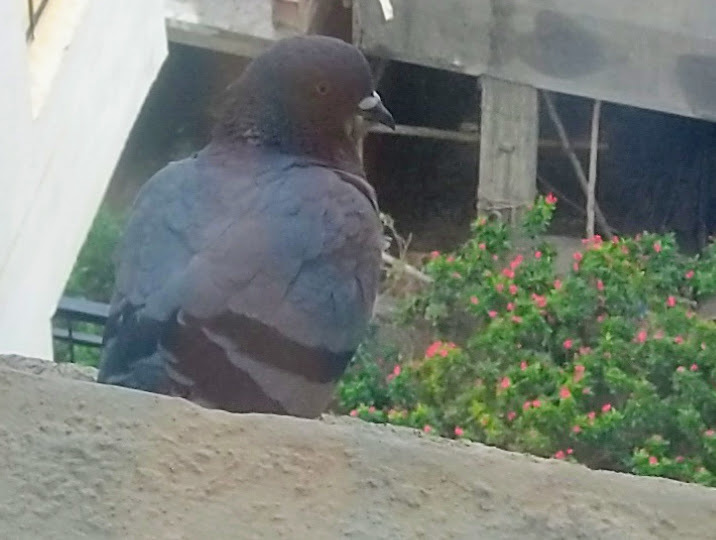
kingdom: Animalia
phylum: Chordata
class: Aves
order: Columbiformes
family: Columbidae
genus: Columba
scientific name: Columba livia
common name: Rock pigeon
